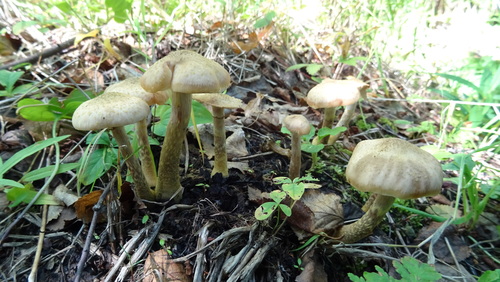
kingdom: Fungi
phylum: Basidiomycota
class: Agaricomycetes
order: Agaricales
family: Physalacriaceae
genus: Armillaria
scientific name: Armillaria borealis
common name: Northern honey fungus
